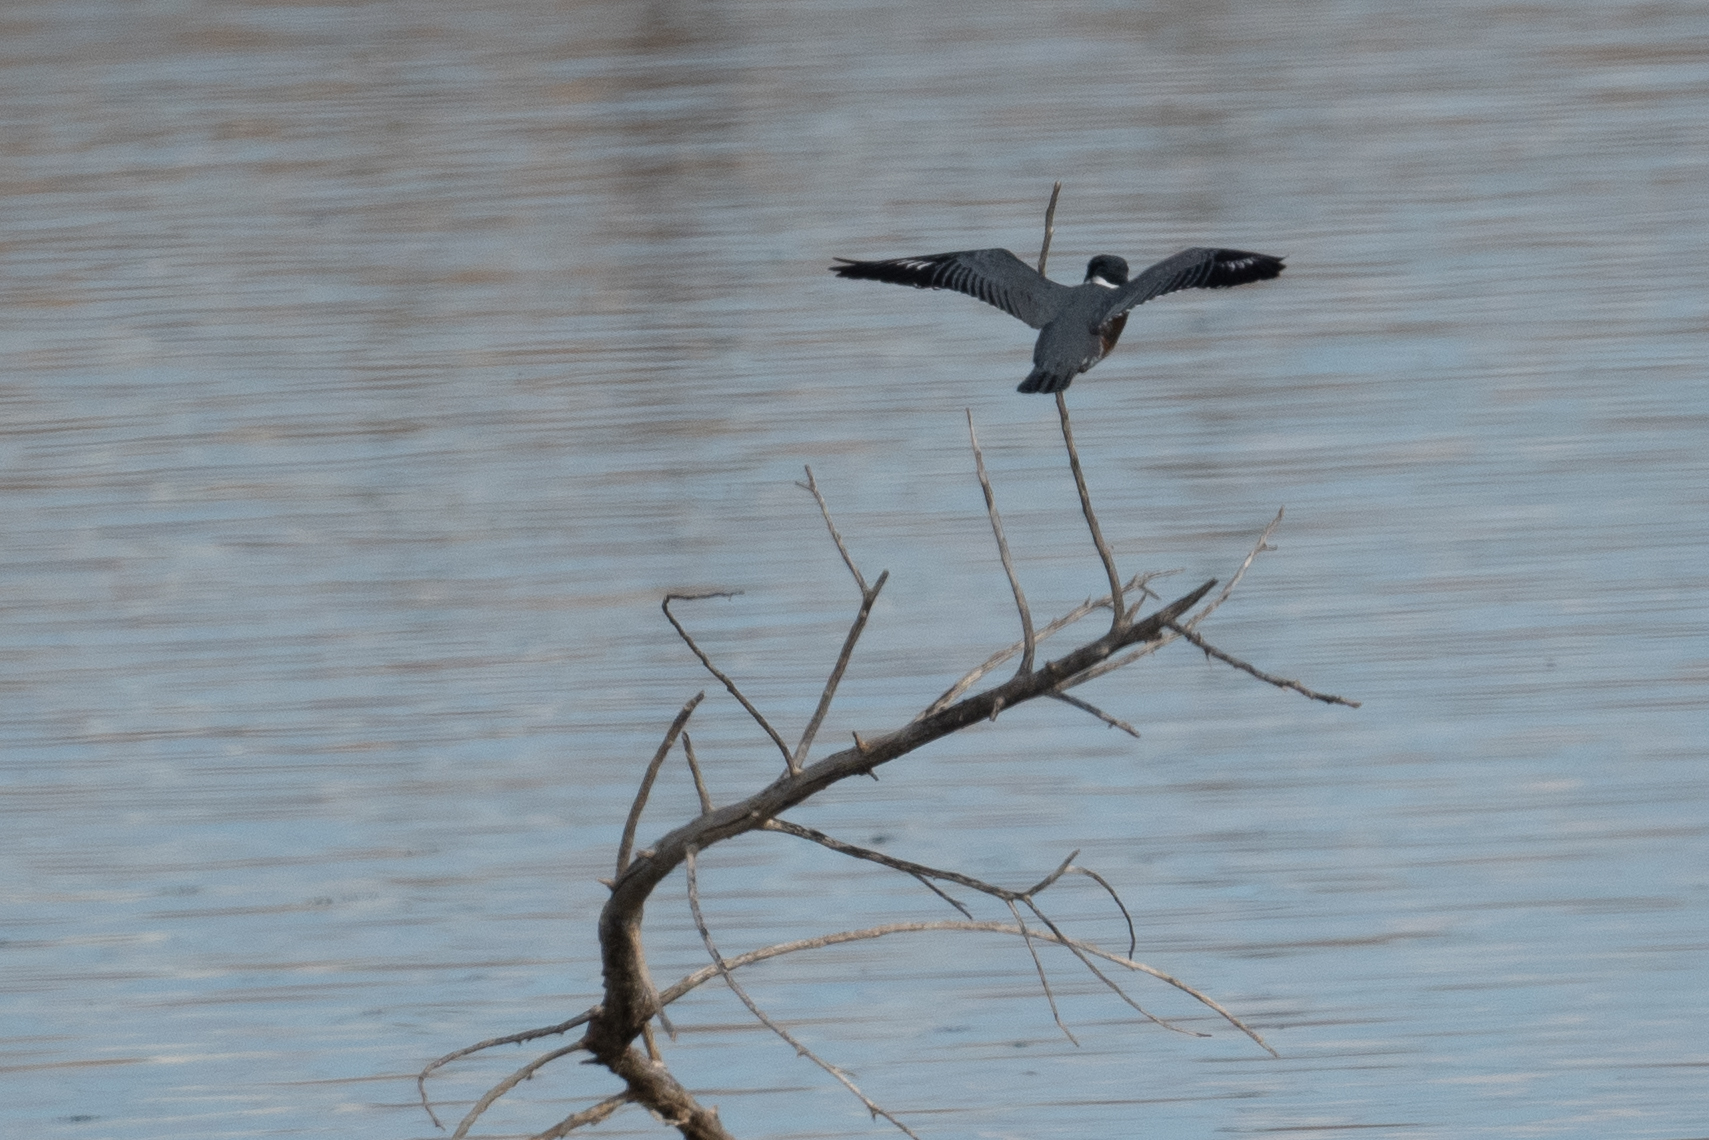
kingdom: Animalia
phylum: Chordata
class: Aves
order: Coraciiformes
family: Alcedinidae
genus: Megaceryle
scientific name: Megaceryle alcyon
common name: Belted kingfisher
